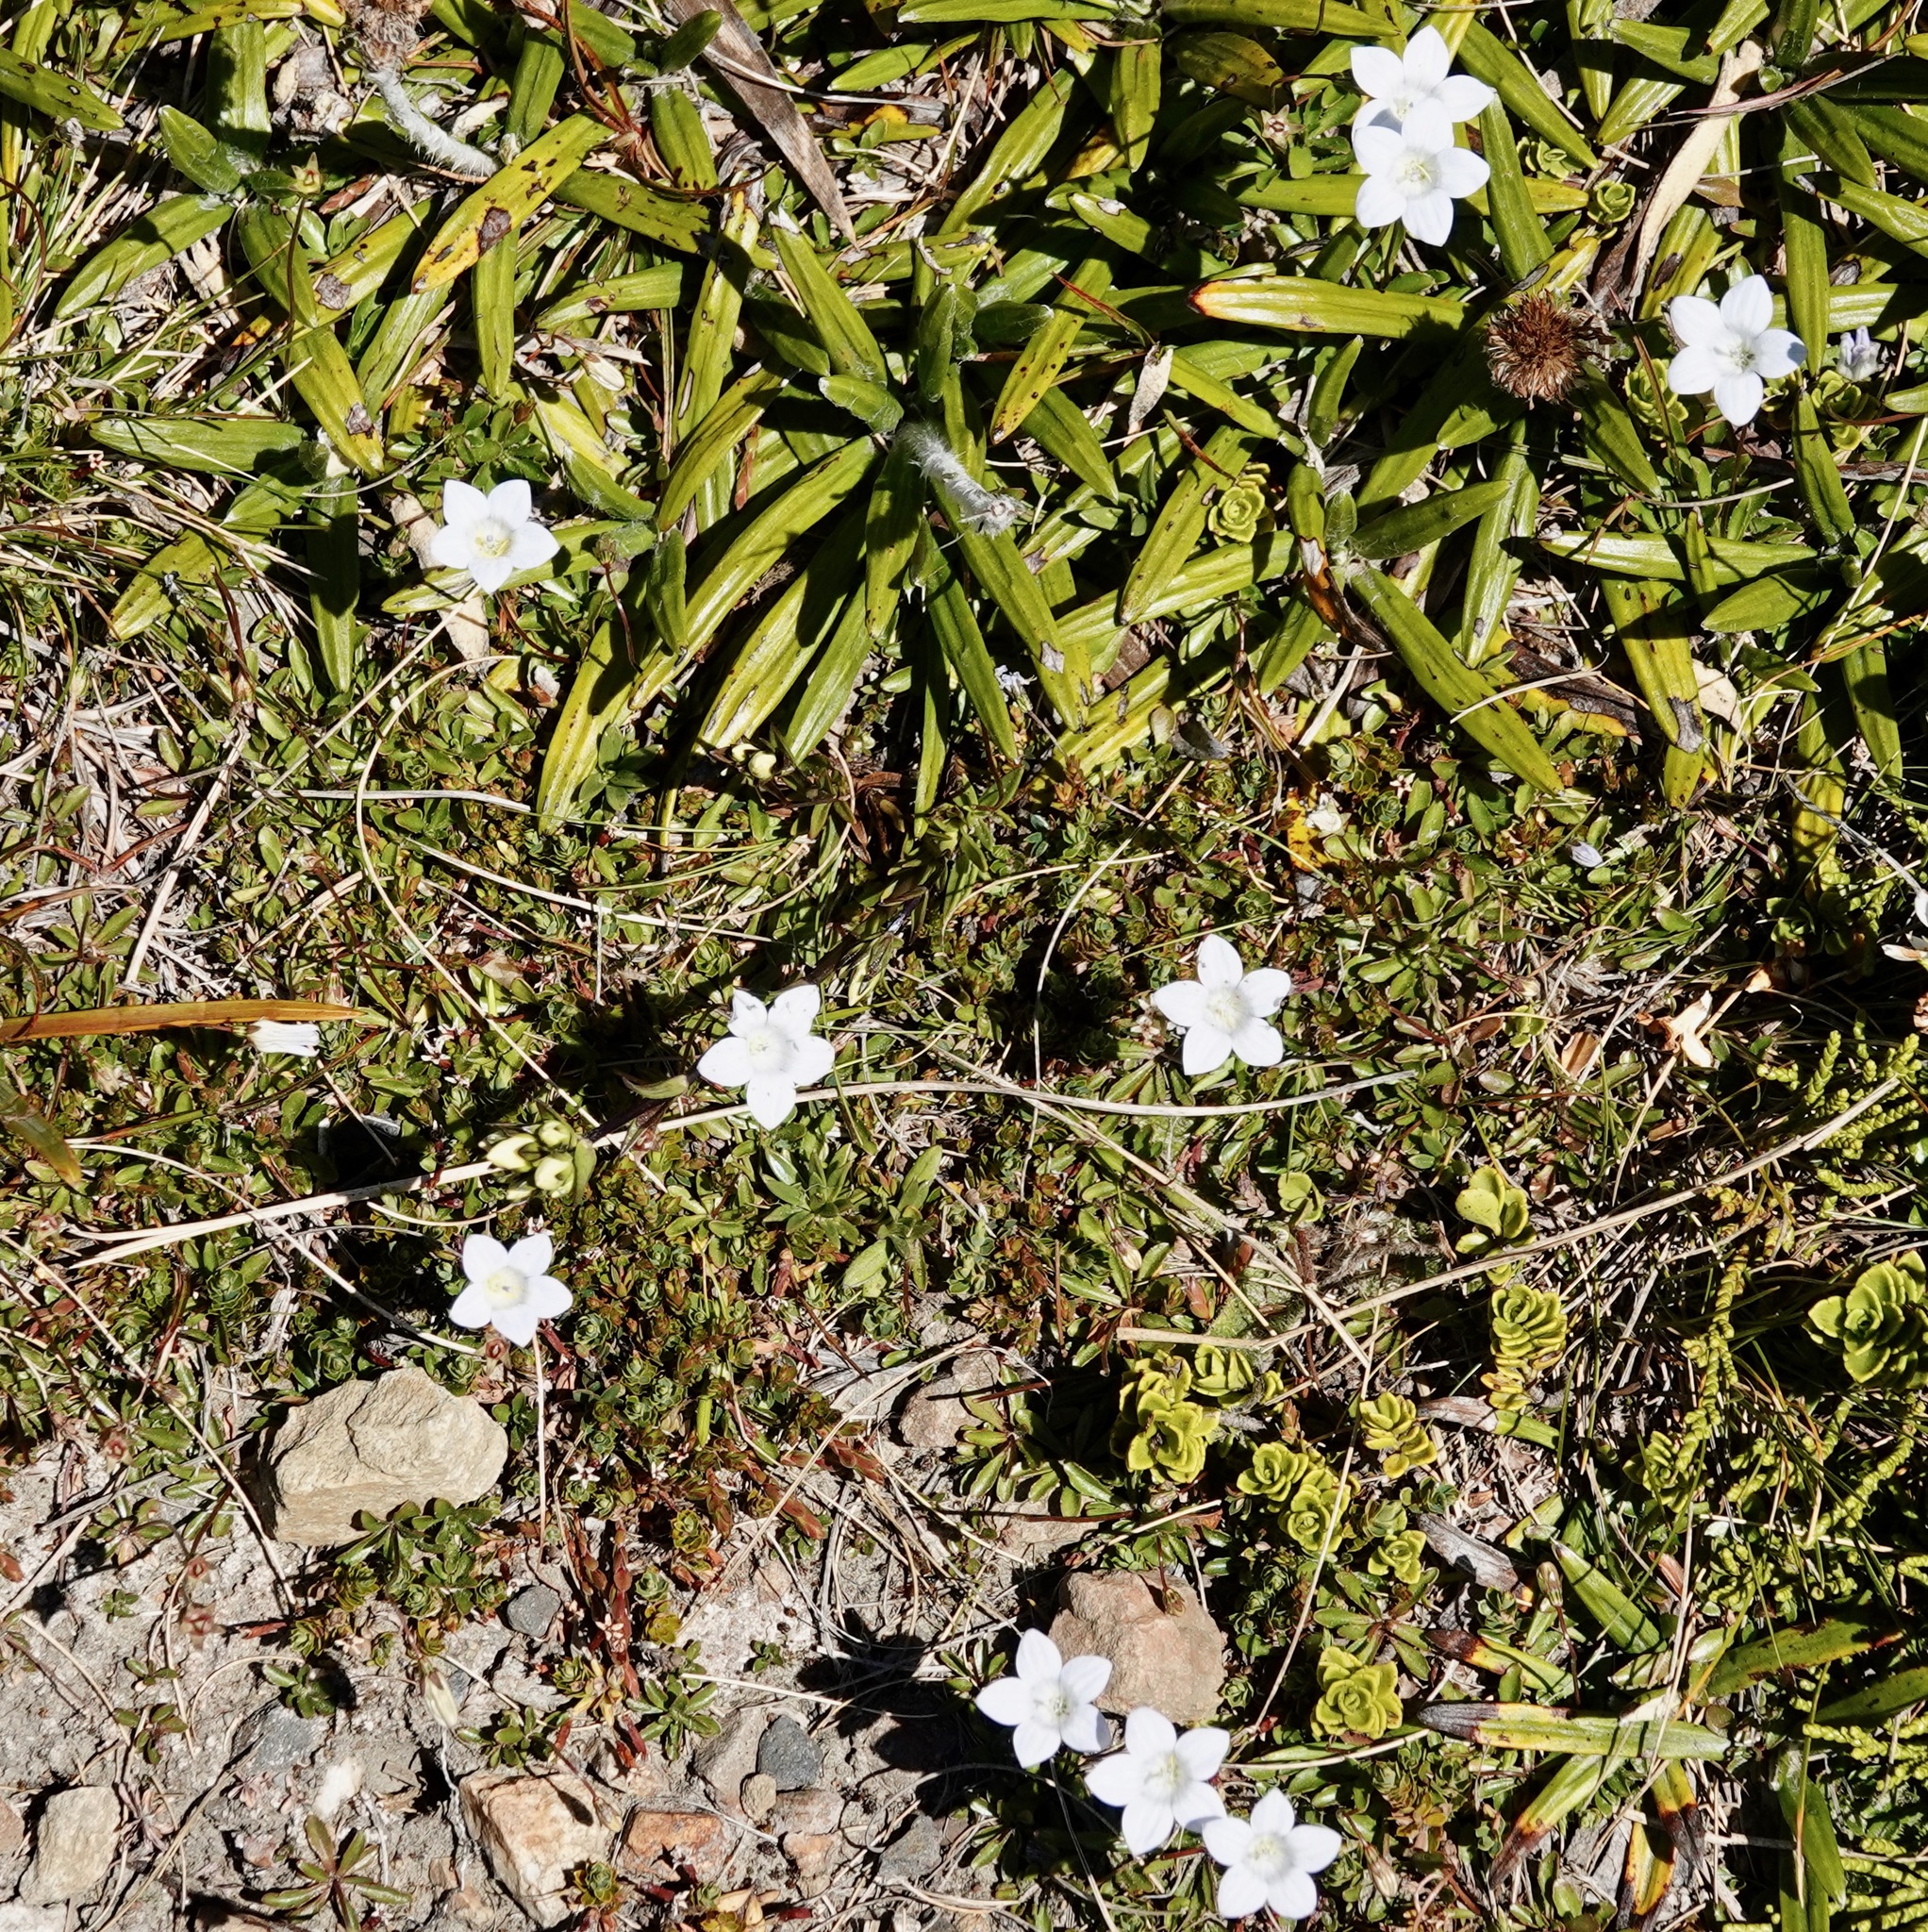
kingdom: Plantae
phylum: Tracheophyta
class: Magnoliopsida
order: Asterales
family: Campanulaceae
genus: Wahlenbergia
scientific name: Wahlenbergia albomarginata
